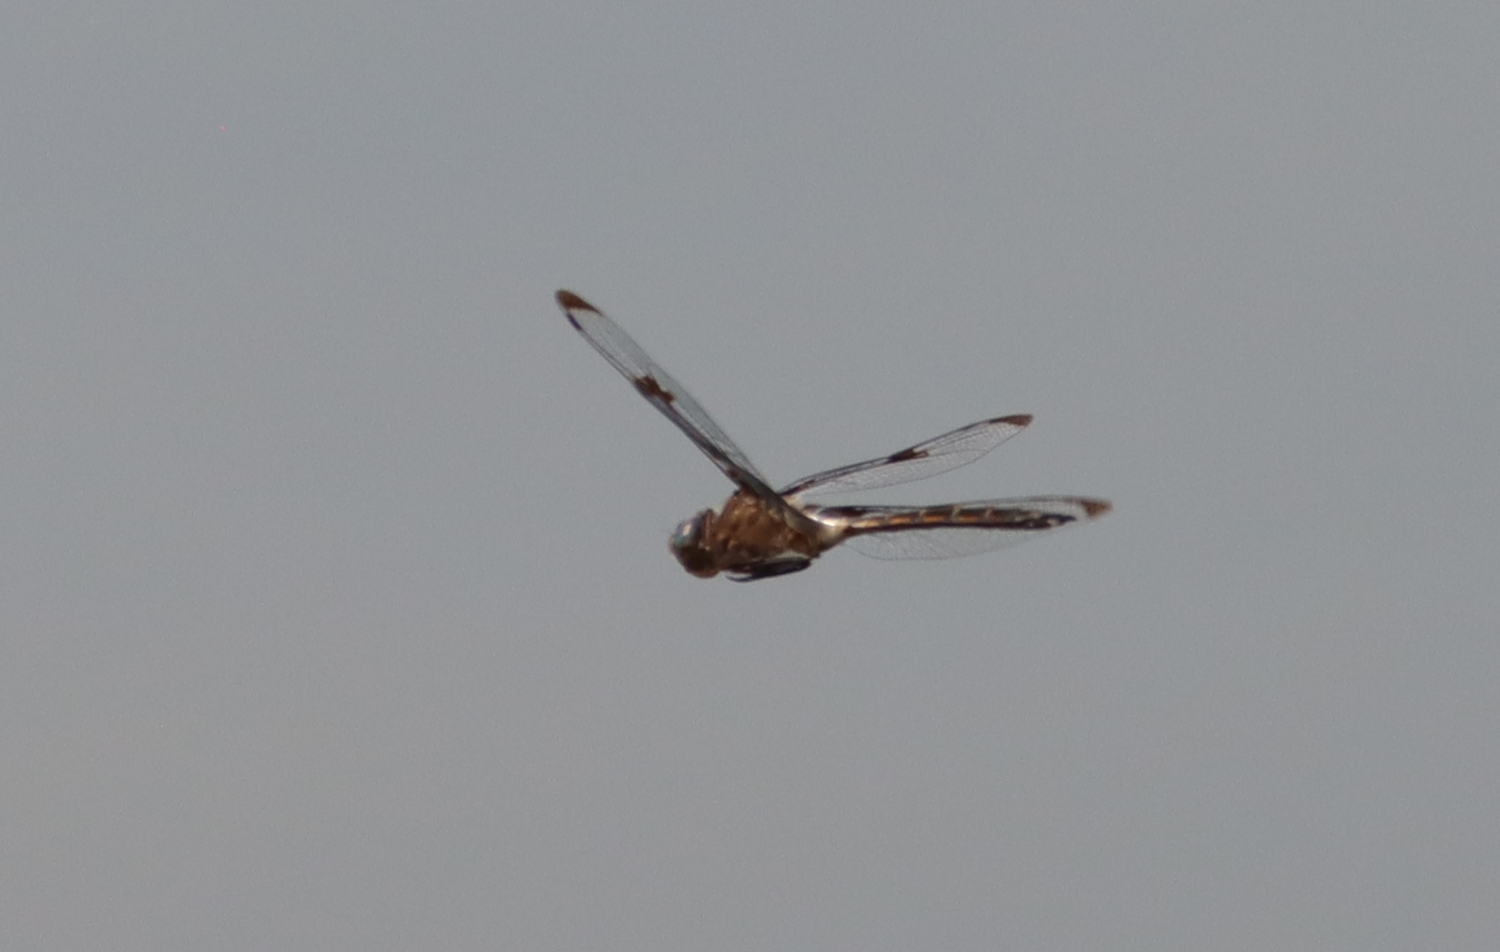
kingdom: Animalia
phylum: Arthropoda
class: Insecta
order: Odonata
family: Corduliidae
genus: Epitheca
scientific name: Epitheca princeps
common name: Prince baskettail
